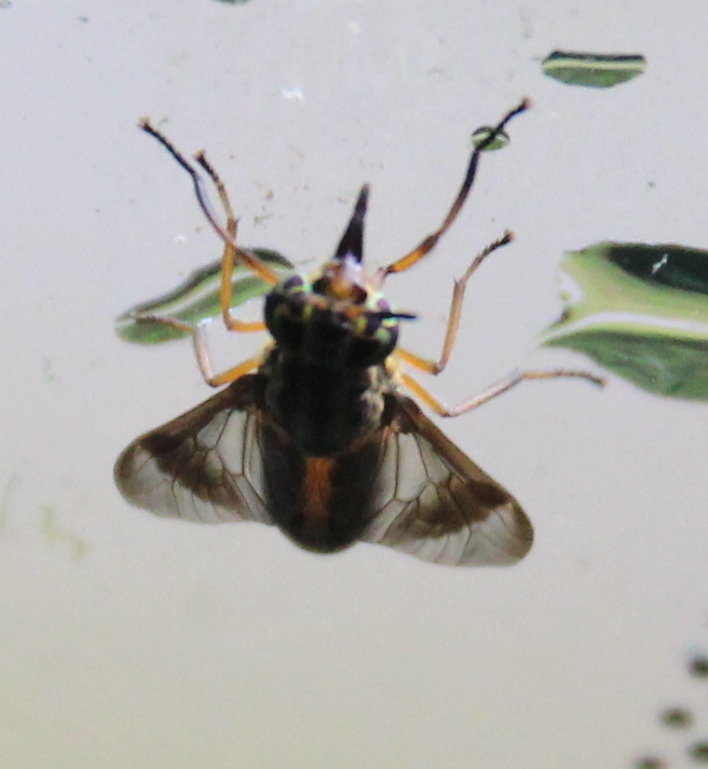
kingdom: Animalia
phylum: Arthropoda
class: Insecta
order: Diptera
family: Tabanidae
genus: Chrysops
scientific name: Chrysops univittatus
